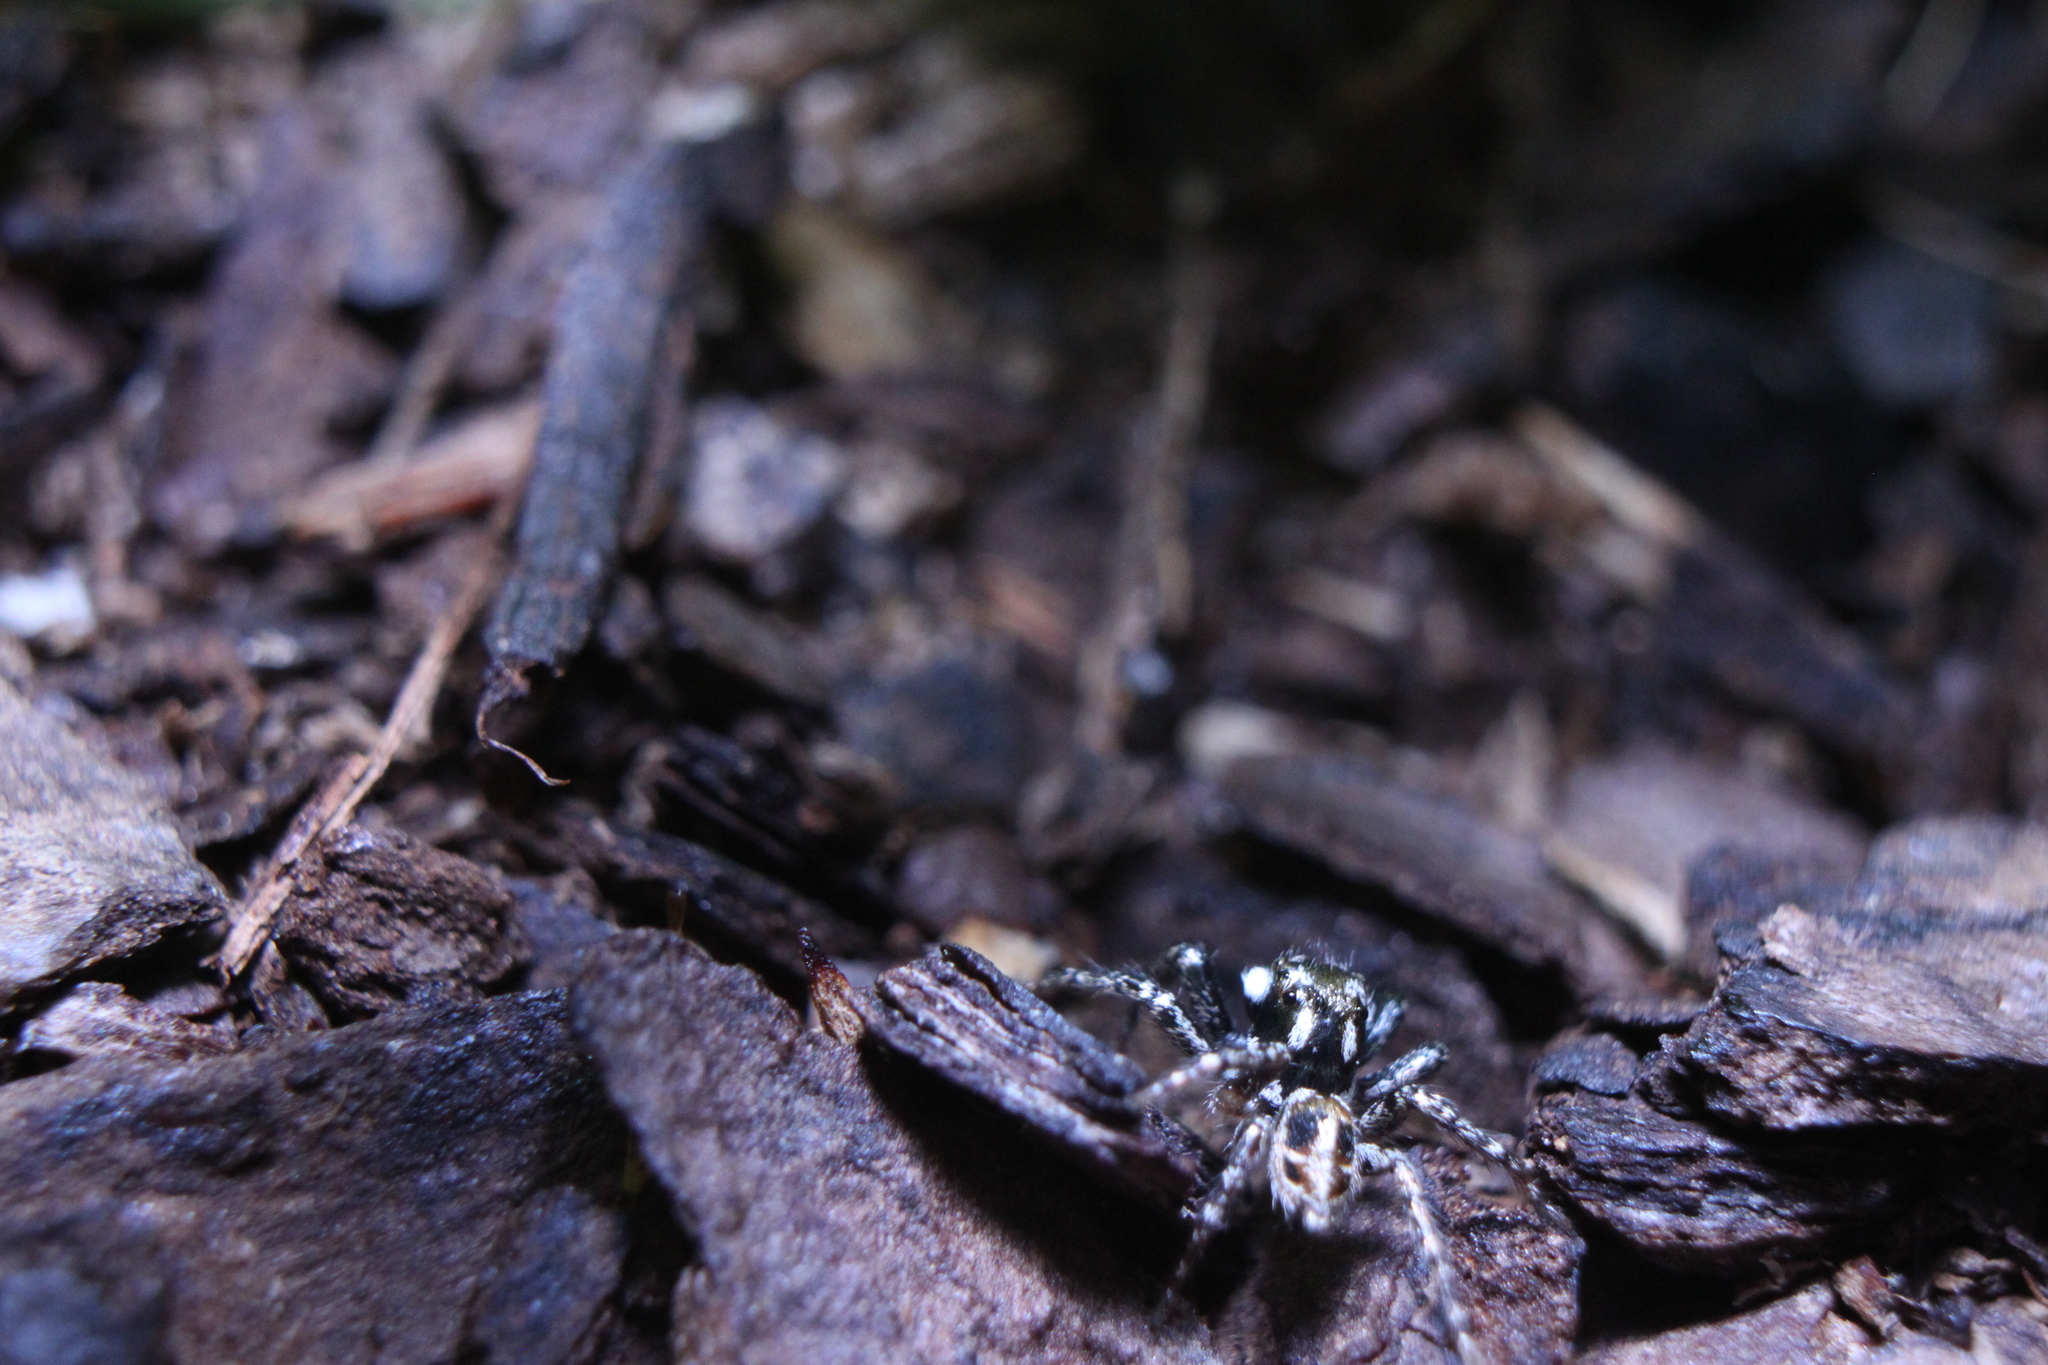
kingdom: Animalia
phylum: Arthropoda
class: Arachnida
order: Araneae
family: Salticidae
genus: Anasaitis
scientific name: Anasaitis canosa
